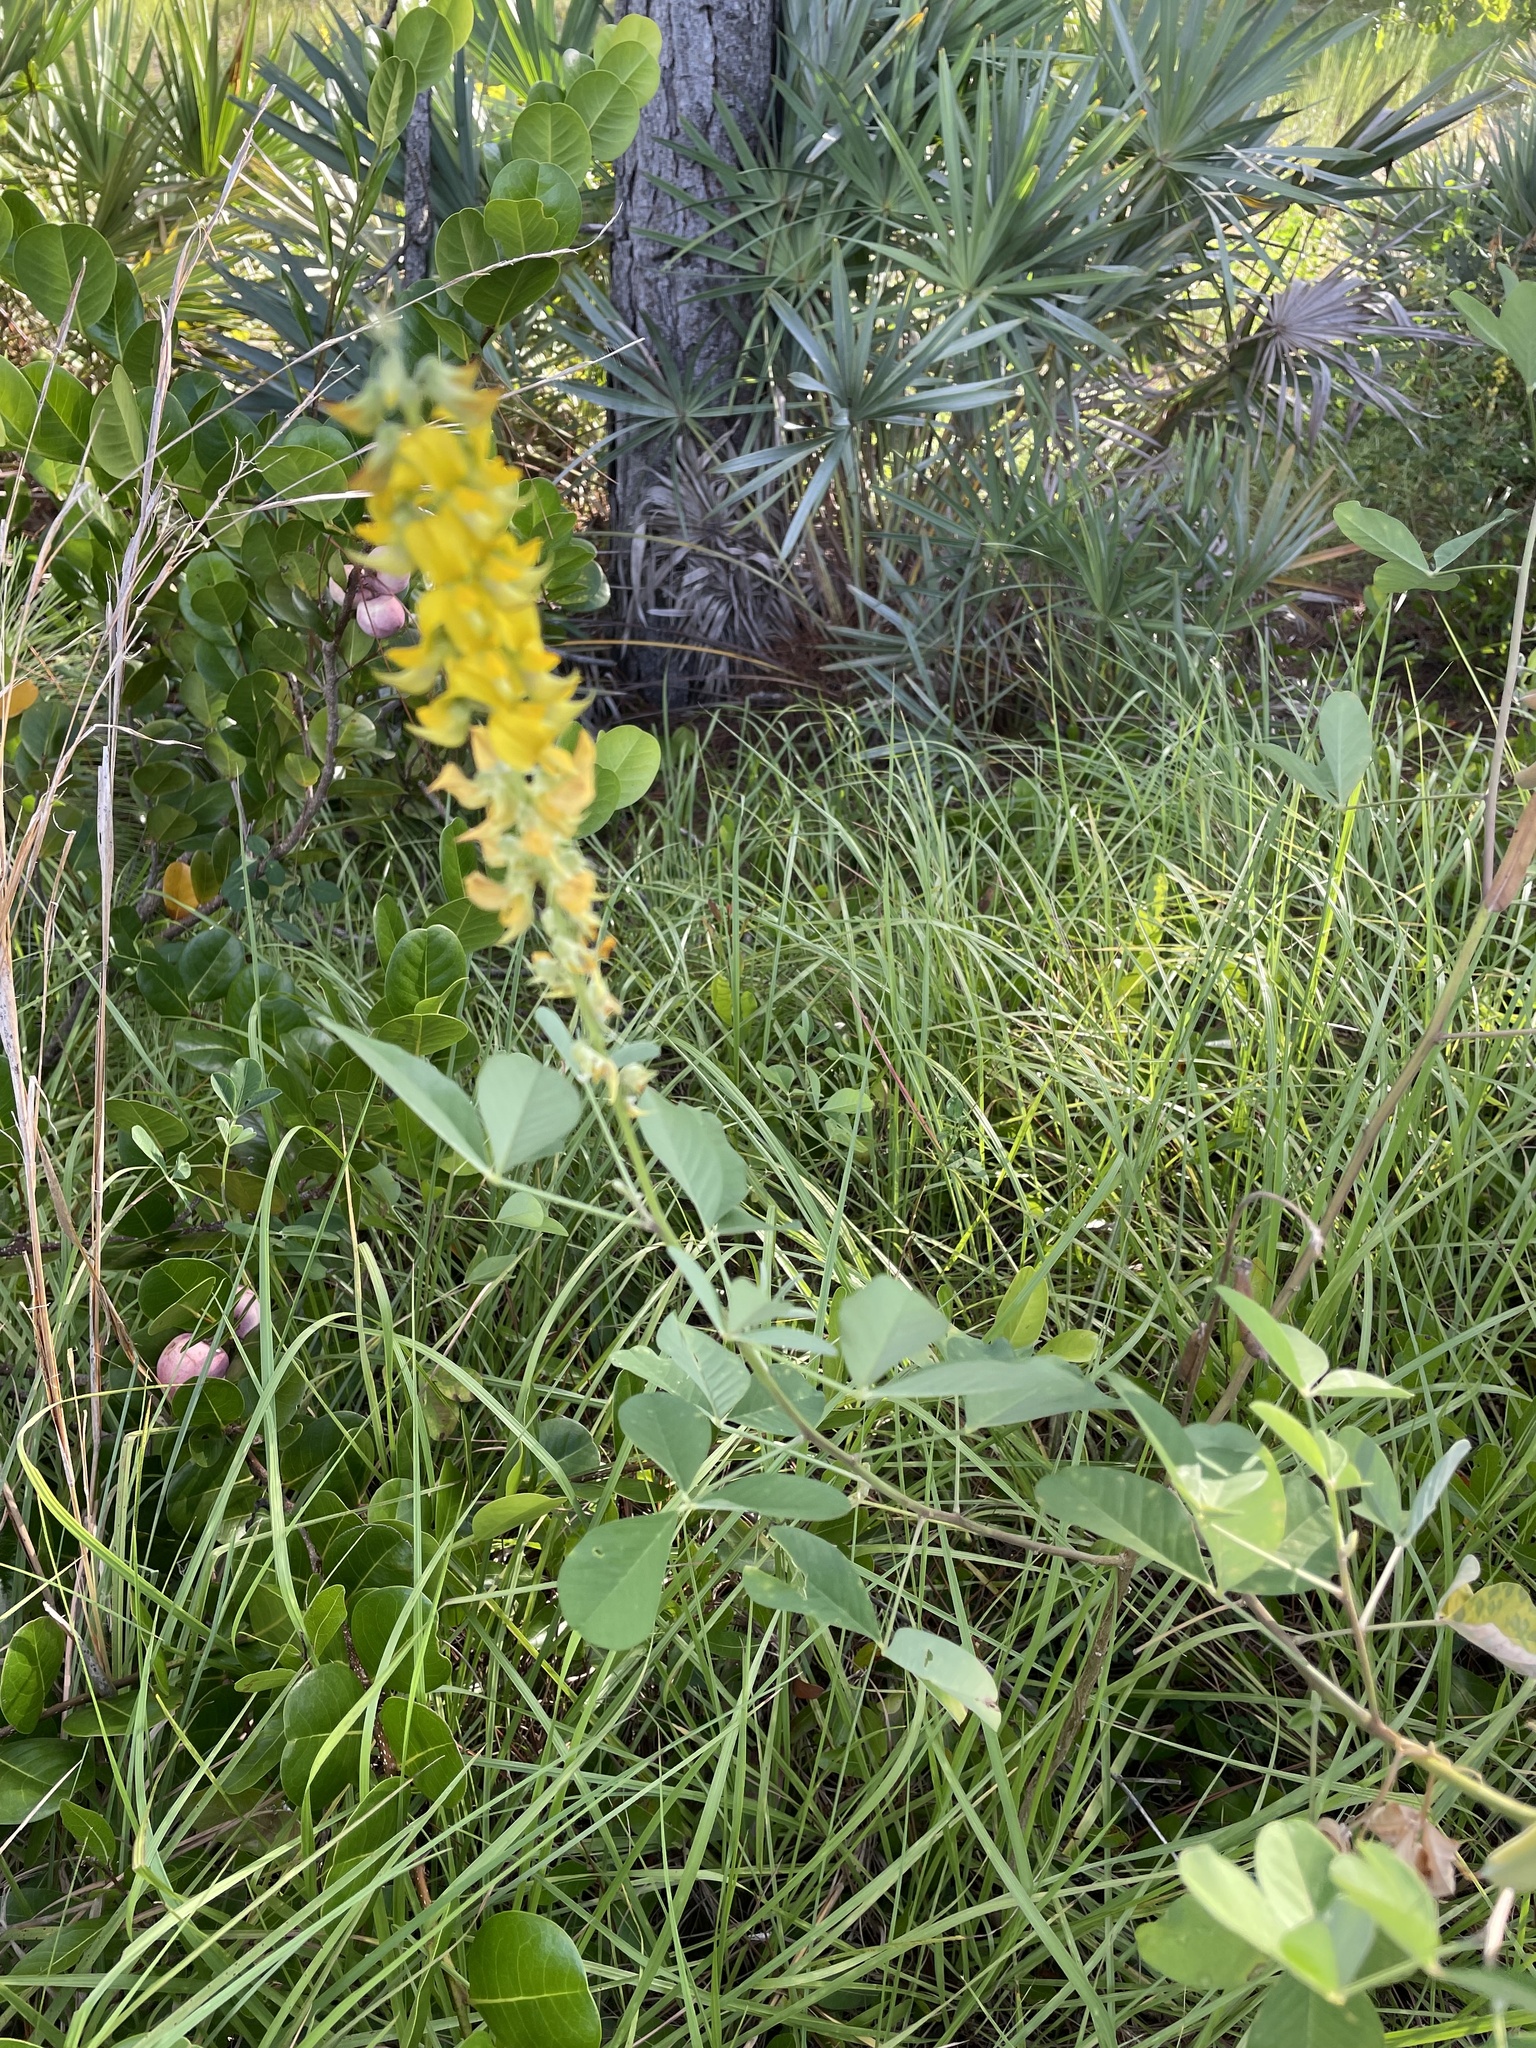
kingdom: Plantae
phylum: Tracheophyta
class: Magnoliopsida
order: Fabales
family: Fabaceae
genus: Crotalaria
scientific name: Crotalaria pallida
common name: Smooth rattlebox
